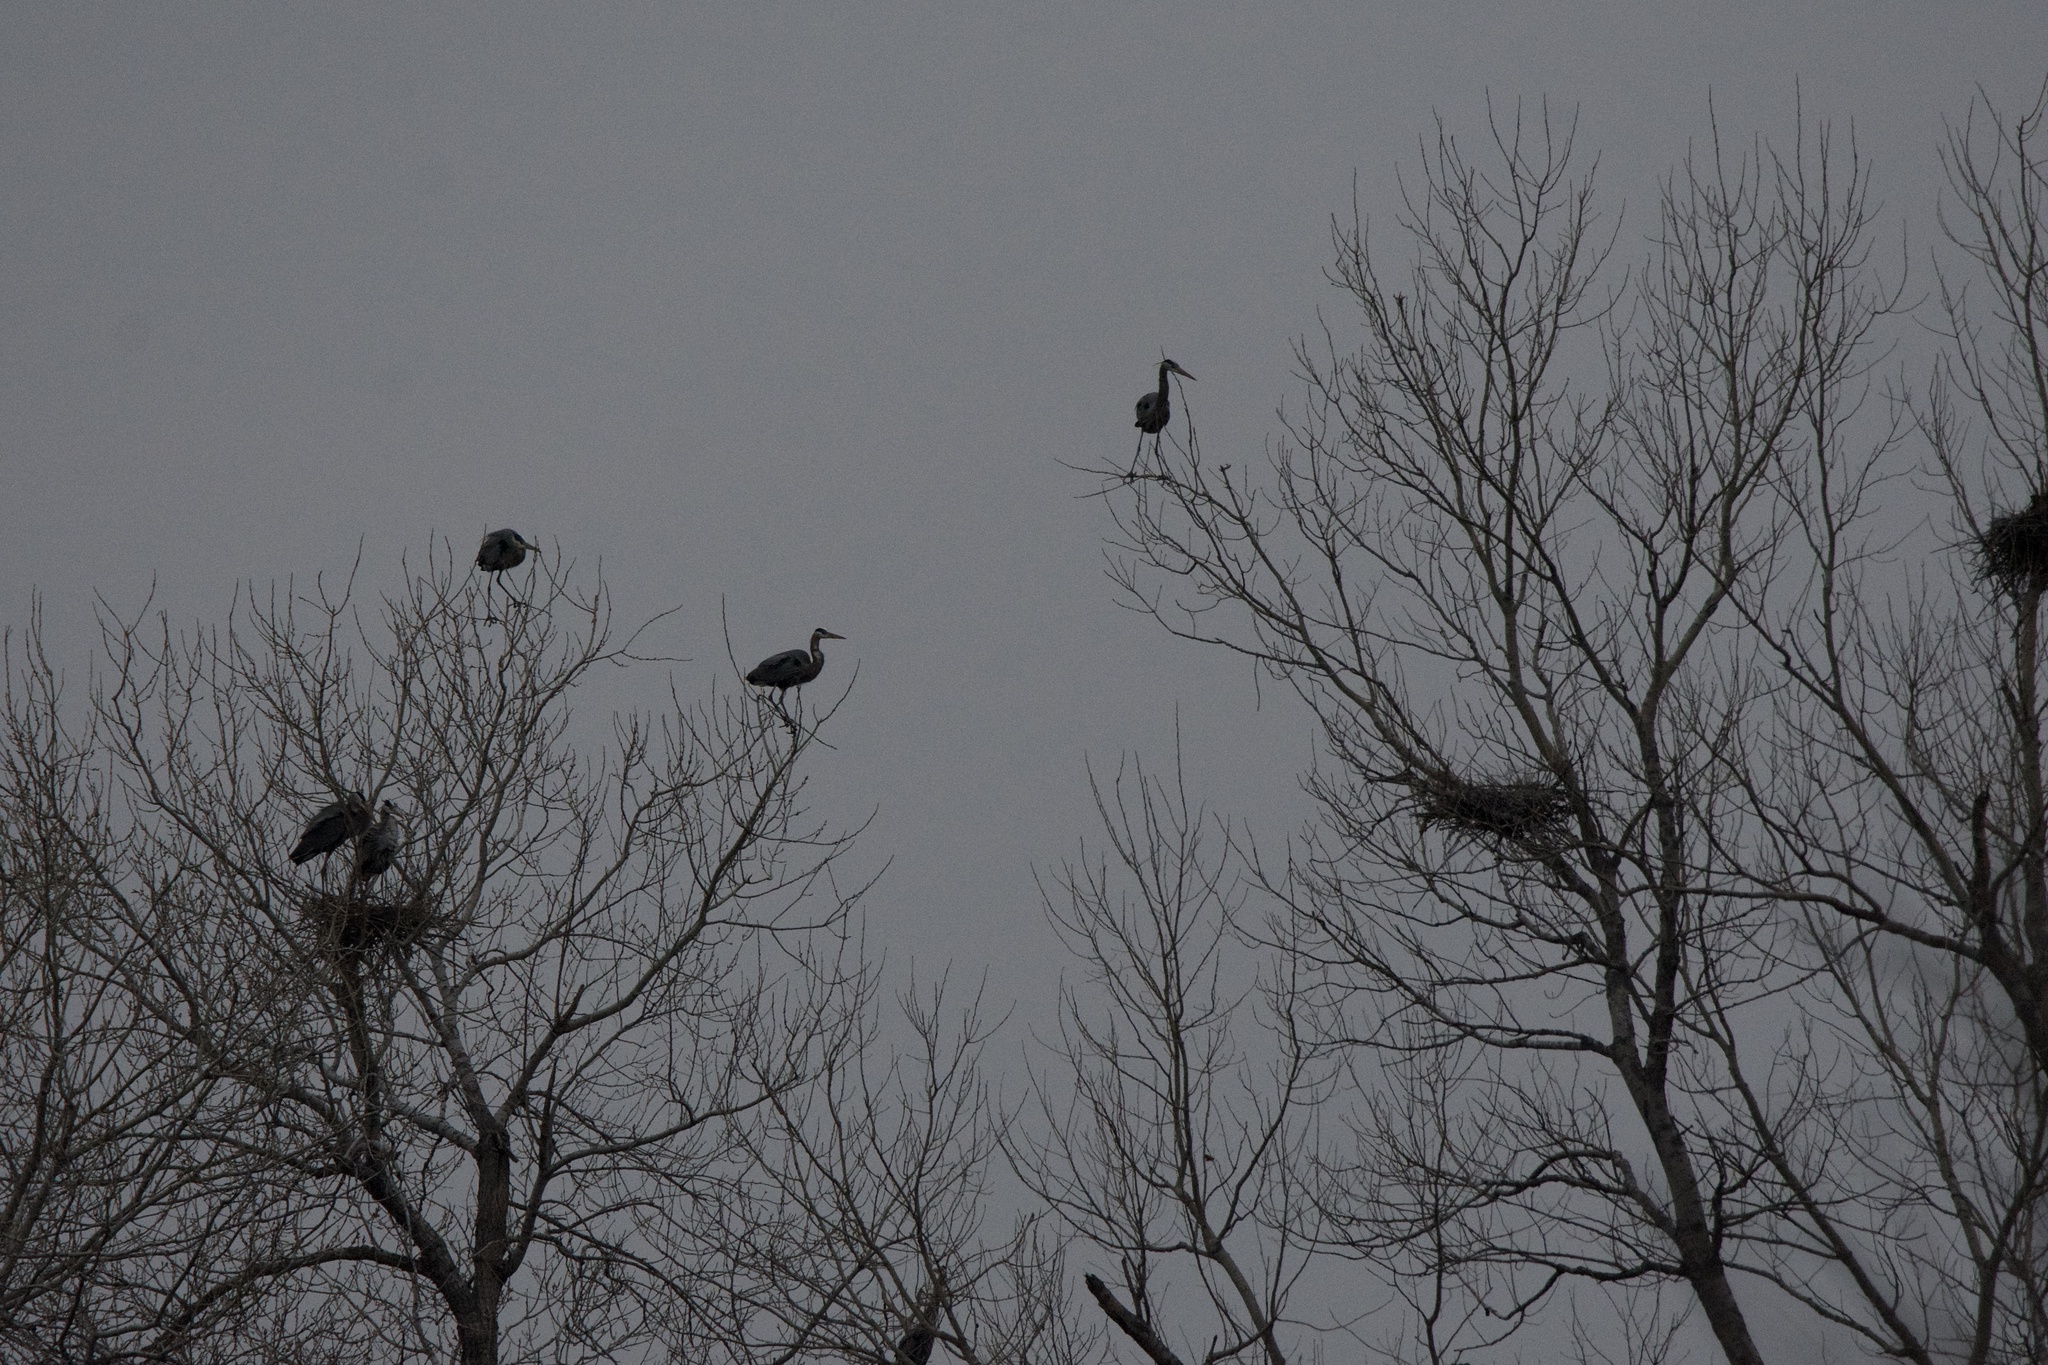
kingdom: Animalia
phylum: Chordata
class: Aves
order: Pelecaniformes
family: Ardeidae
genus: Ardea
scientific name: Ardea herodias
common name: Great blue heron
